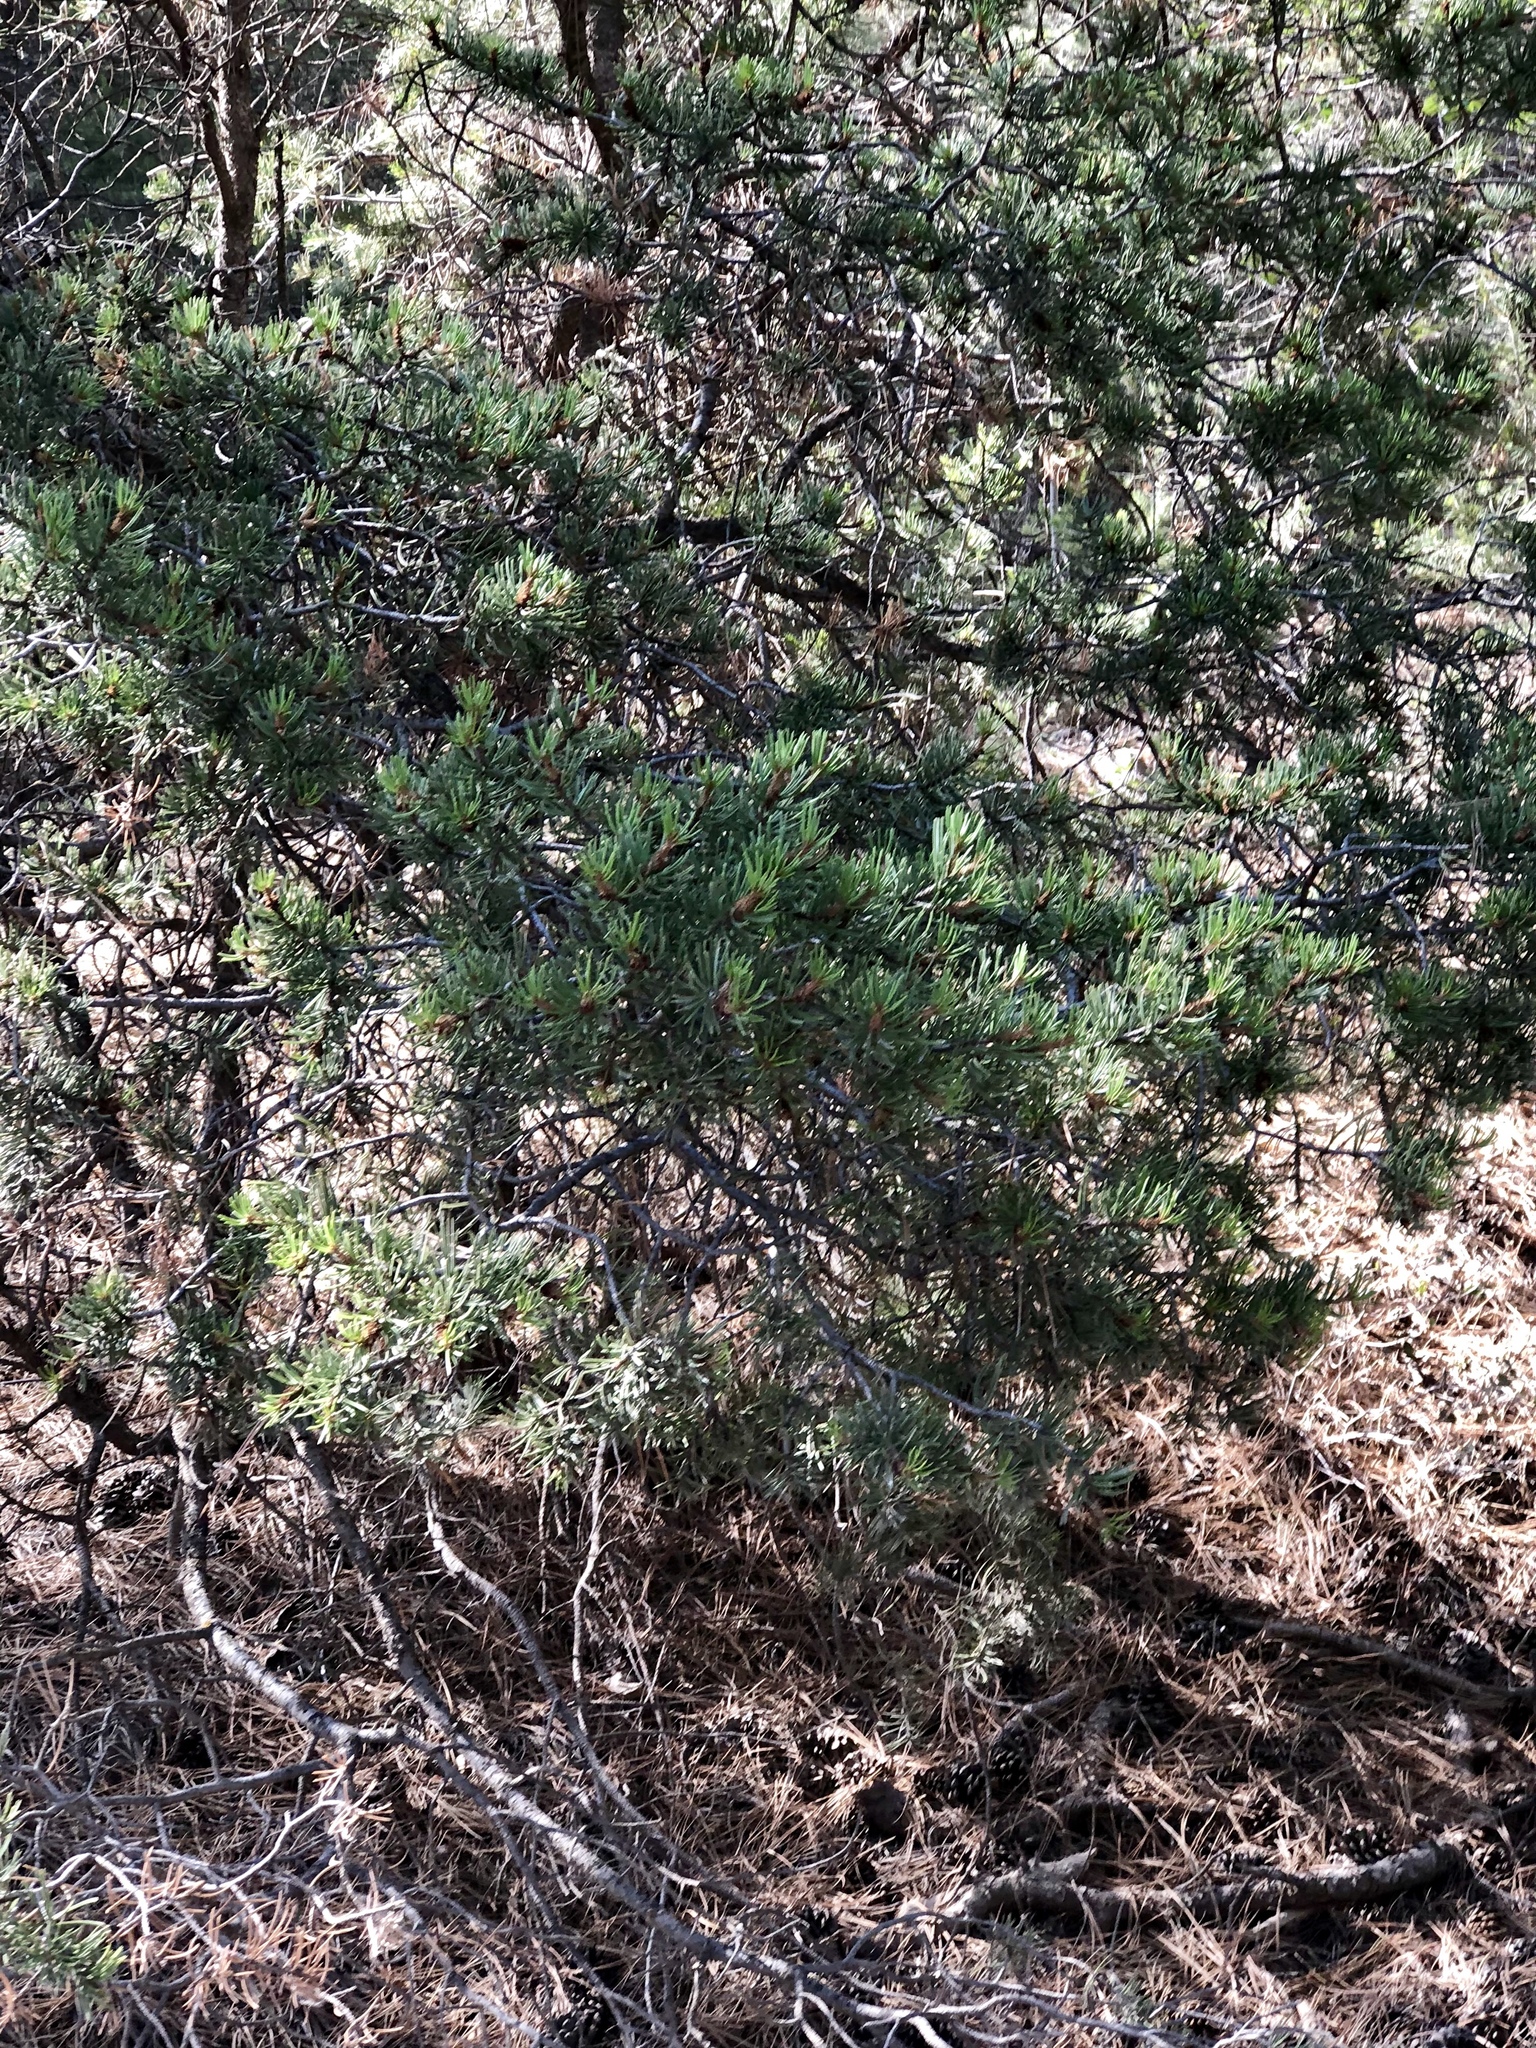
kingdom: Plantae
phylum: Tracheophyta
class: Pinopsida
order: Pinales
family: Pinaceae
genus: Pinus
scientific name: Pinus edulis
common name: Colorado pinyon
